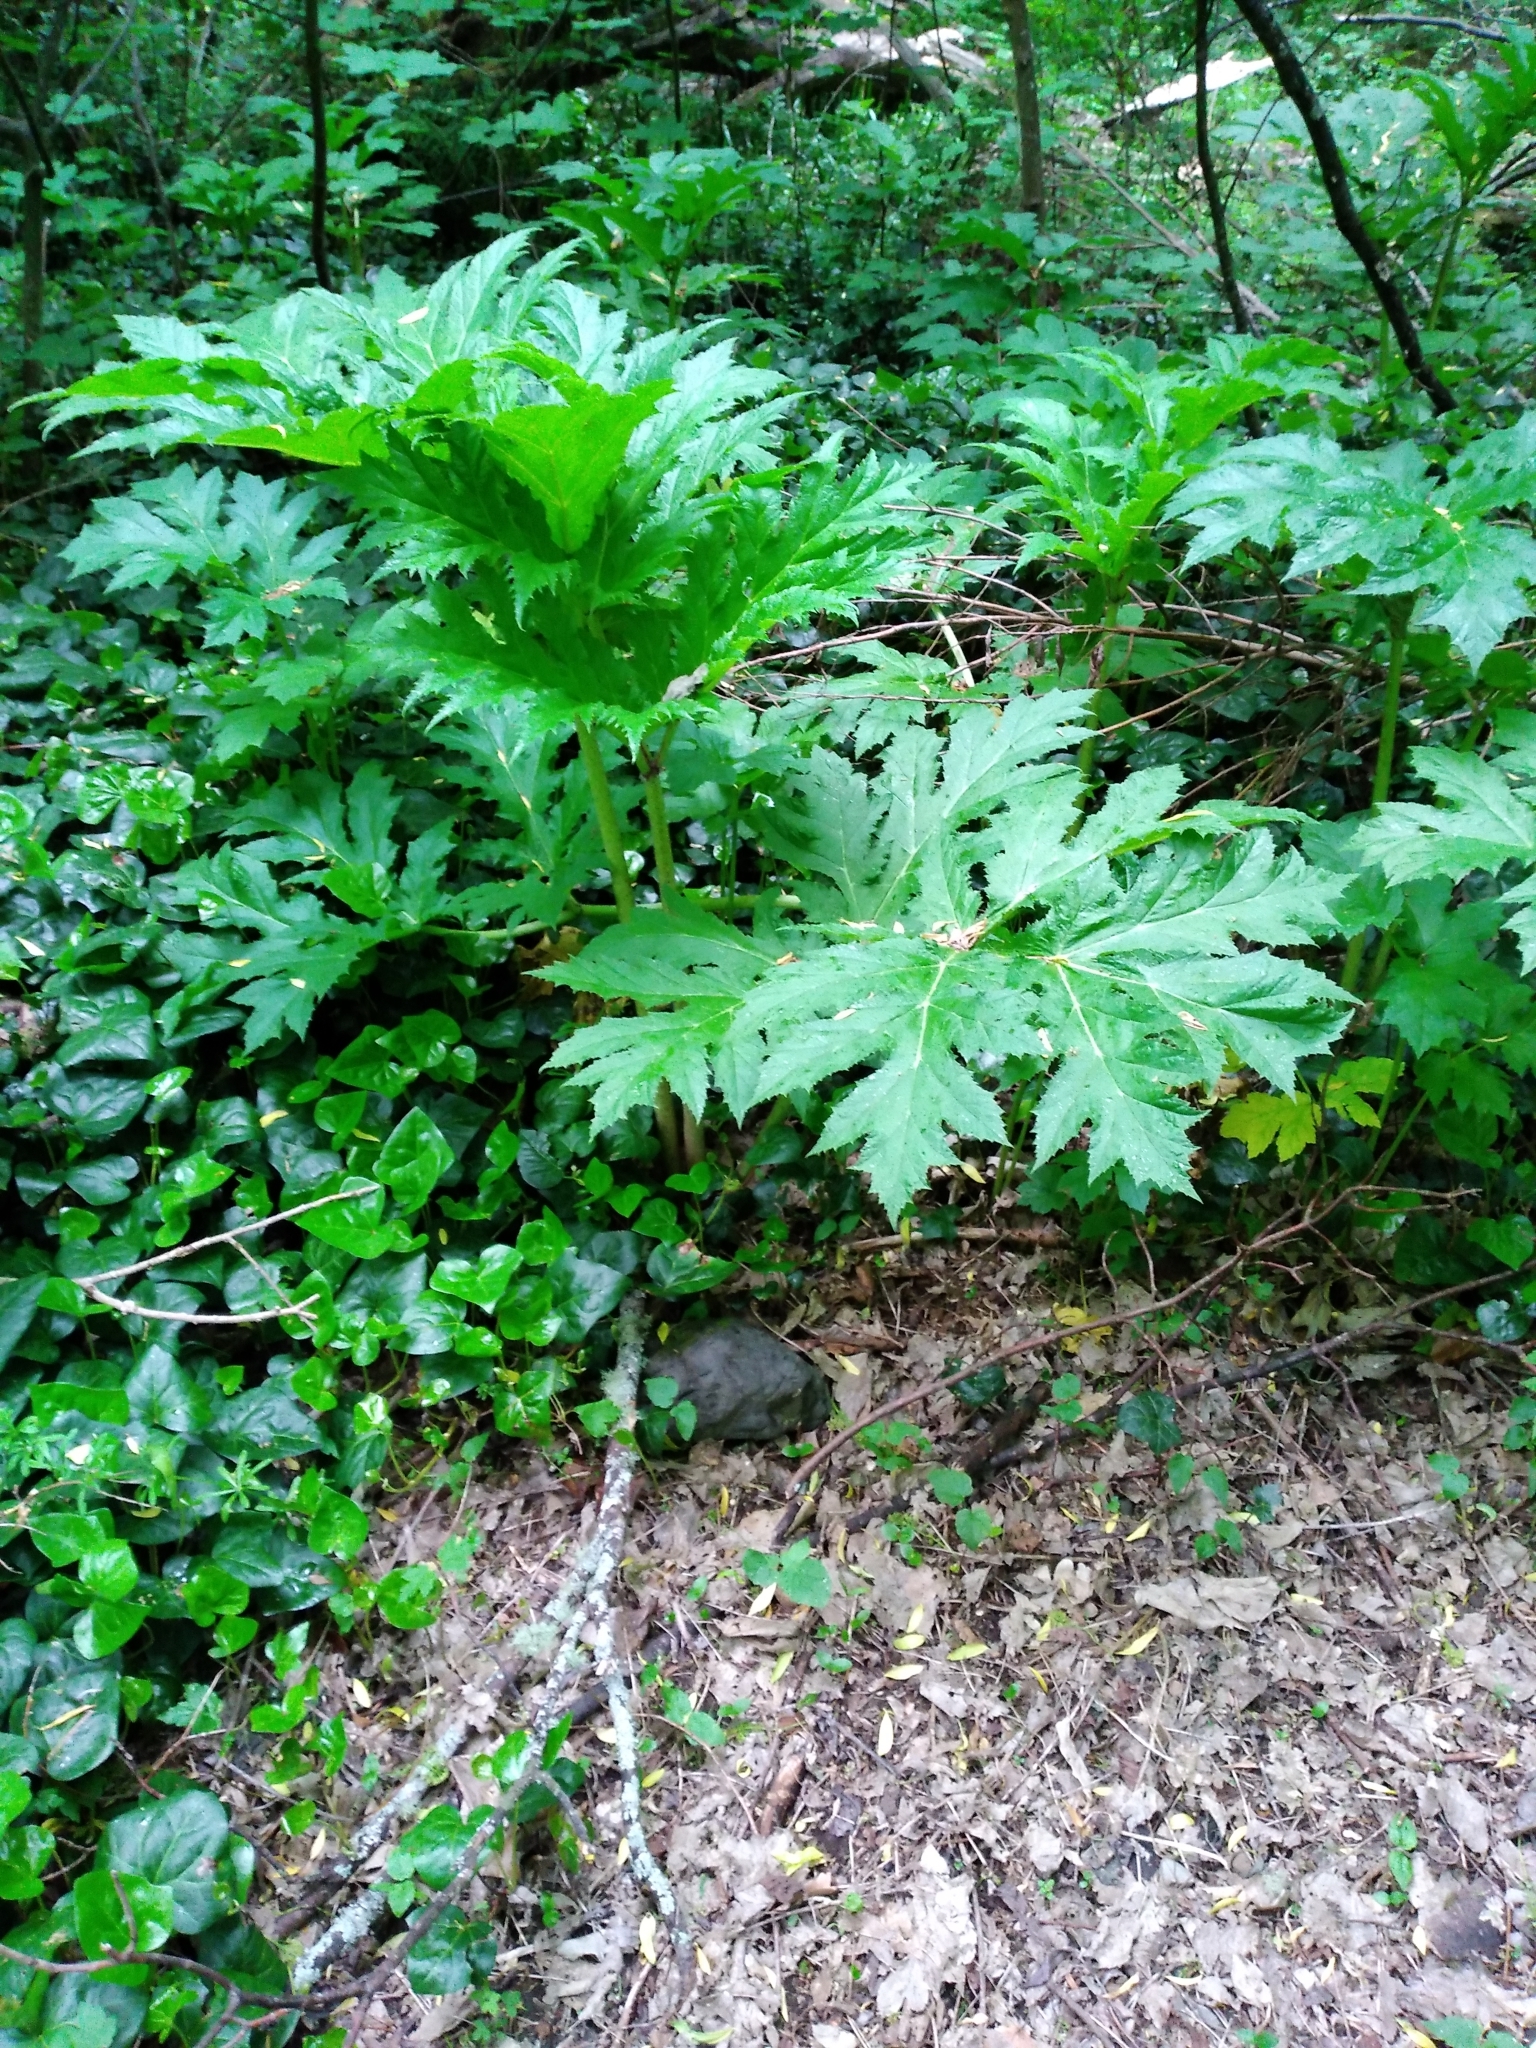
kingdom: Plantae
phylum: Tracheophyta
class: Magnoliopsida
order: Apiales
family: Apiaceae
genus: Heracleum
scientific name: Heracleum mantegazzianum
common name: Giant hogweed
